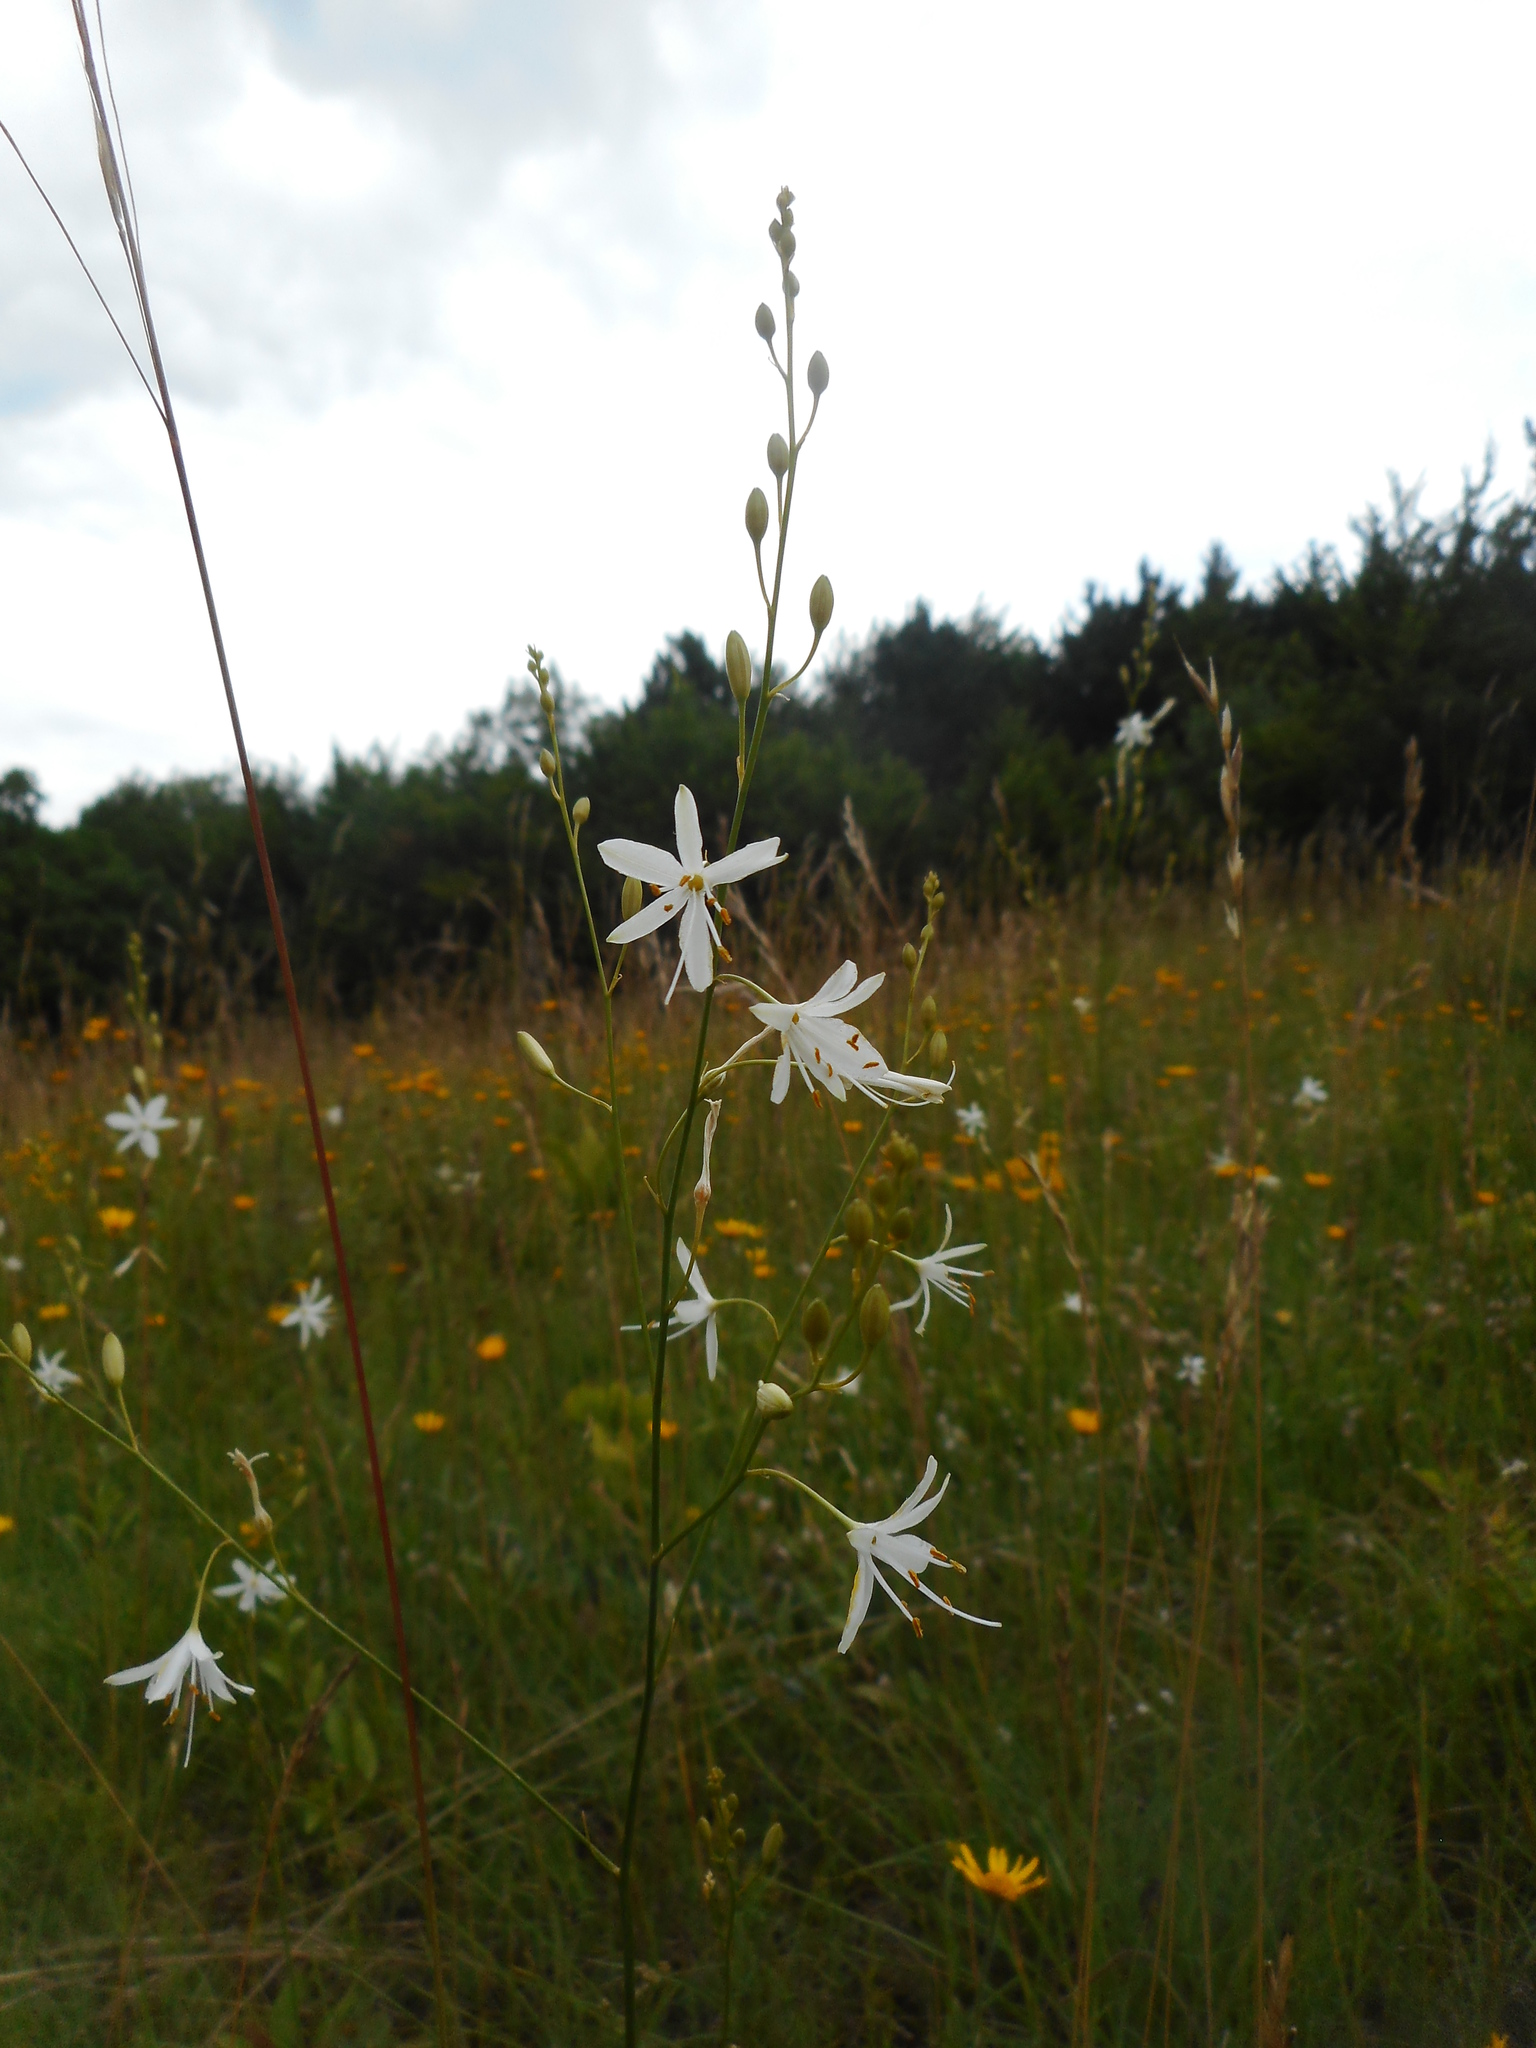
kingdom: Plantae
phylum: Tracheophyta
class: Liliopsida
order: Asparagales
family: Asparagaceae
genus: Anthericum
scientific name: Anthericum ramosum
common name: Branched st. bernard's-lily
